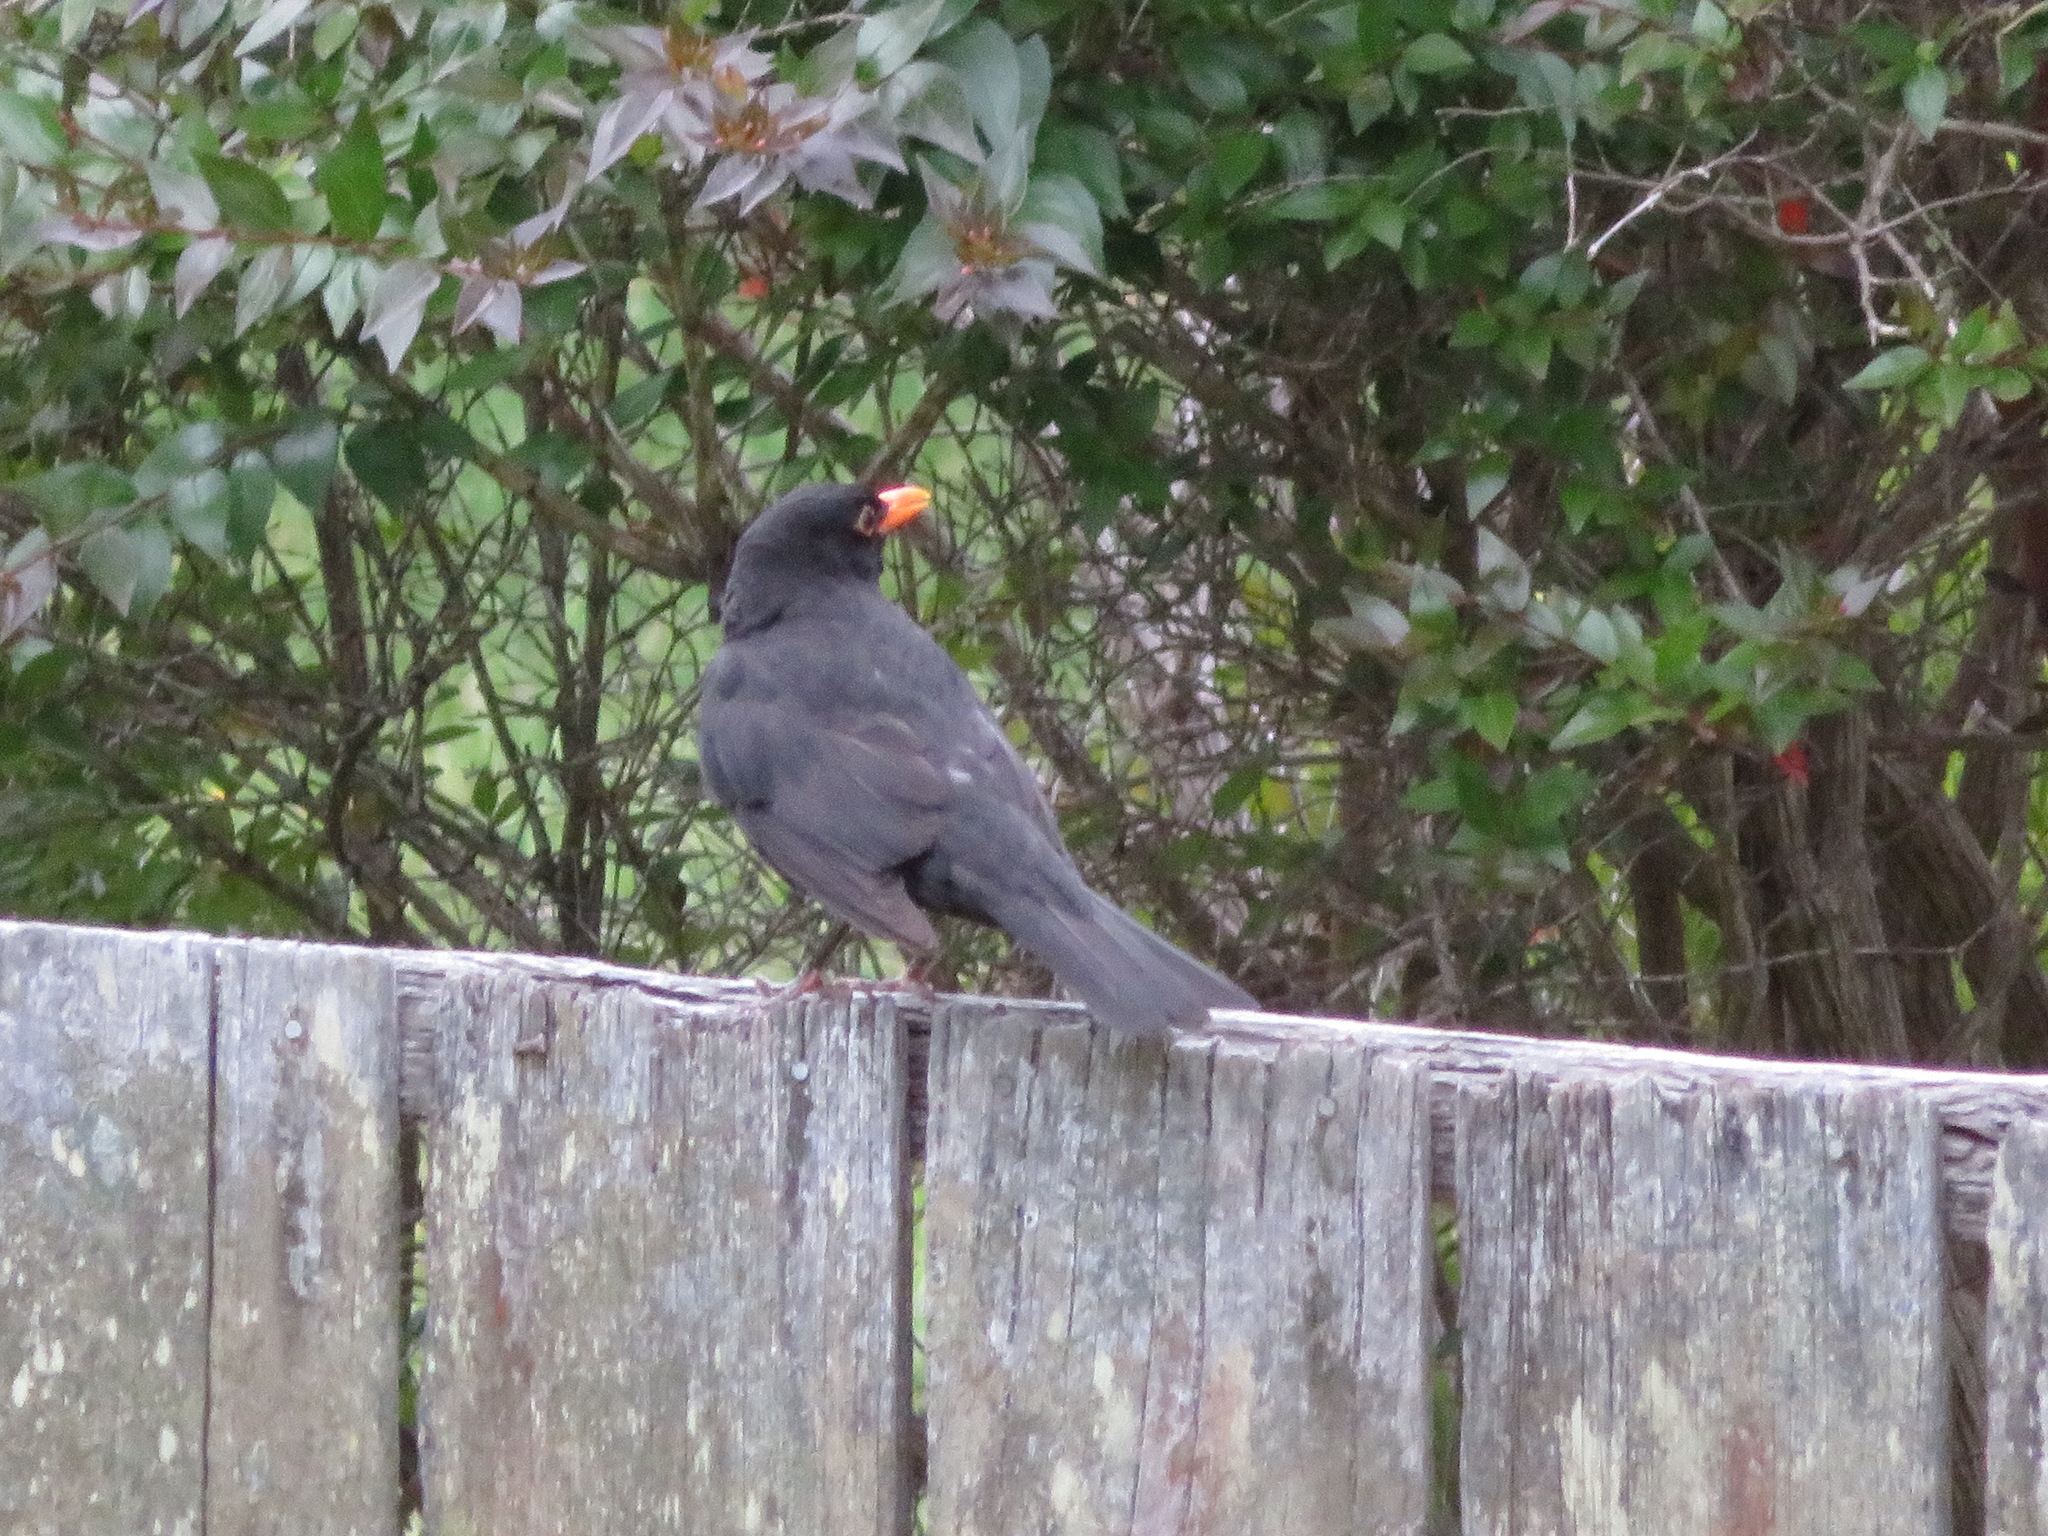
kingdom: Animalia
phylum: Chordata
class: Aves
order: Passeriformes
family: Turdidae
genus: Turdus
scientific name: Turdus merula
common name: Common blackbird
